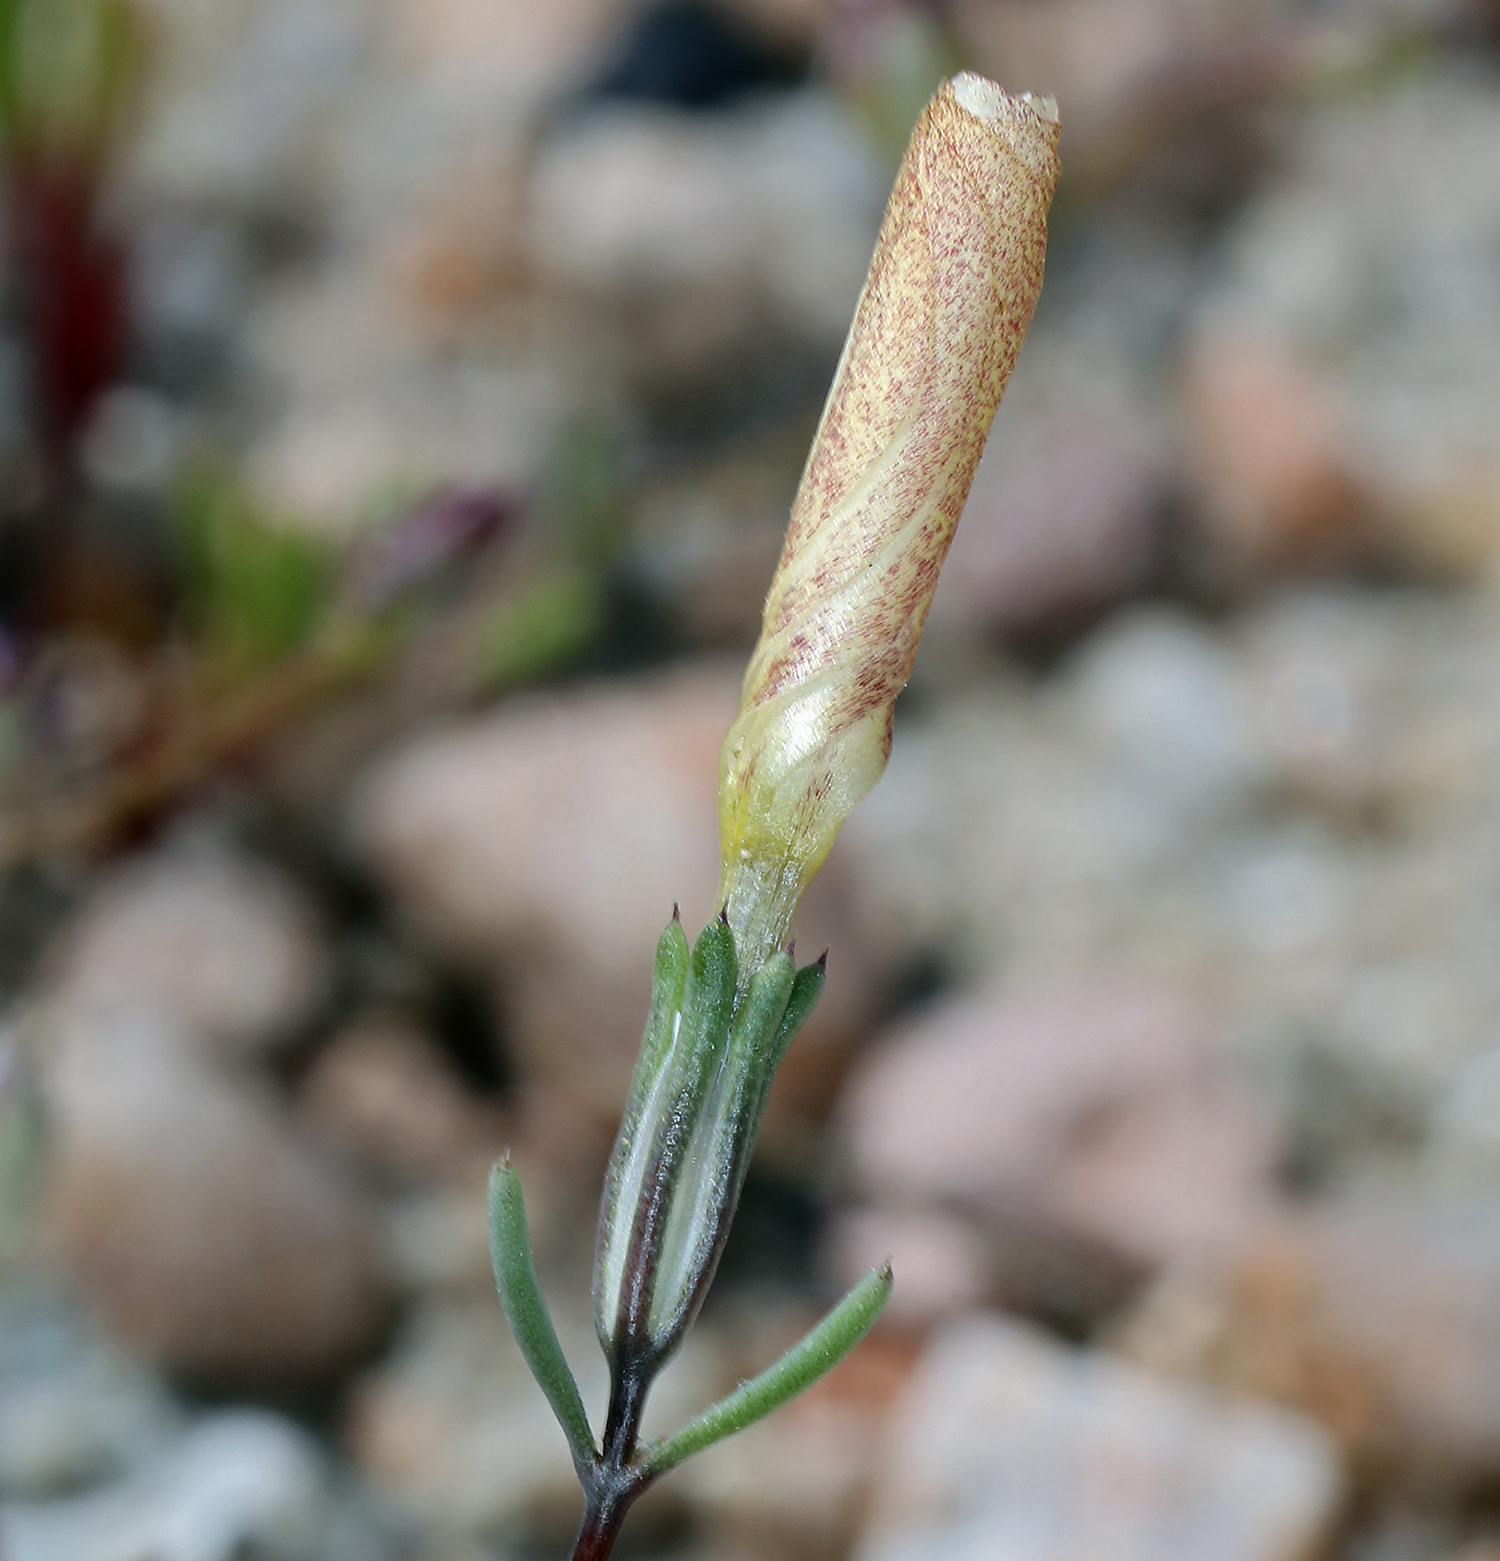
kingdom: Plantae
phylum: Tracheophyta
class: Magnoliopsida
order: Ericales
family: Polemoniaceae
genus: Linanthus
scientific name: Linanthus dichotomus
